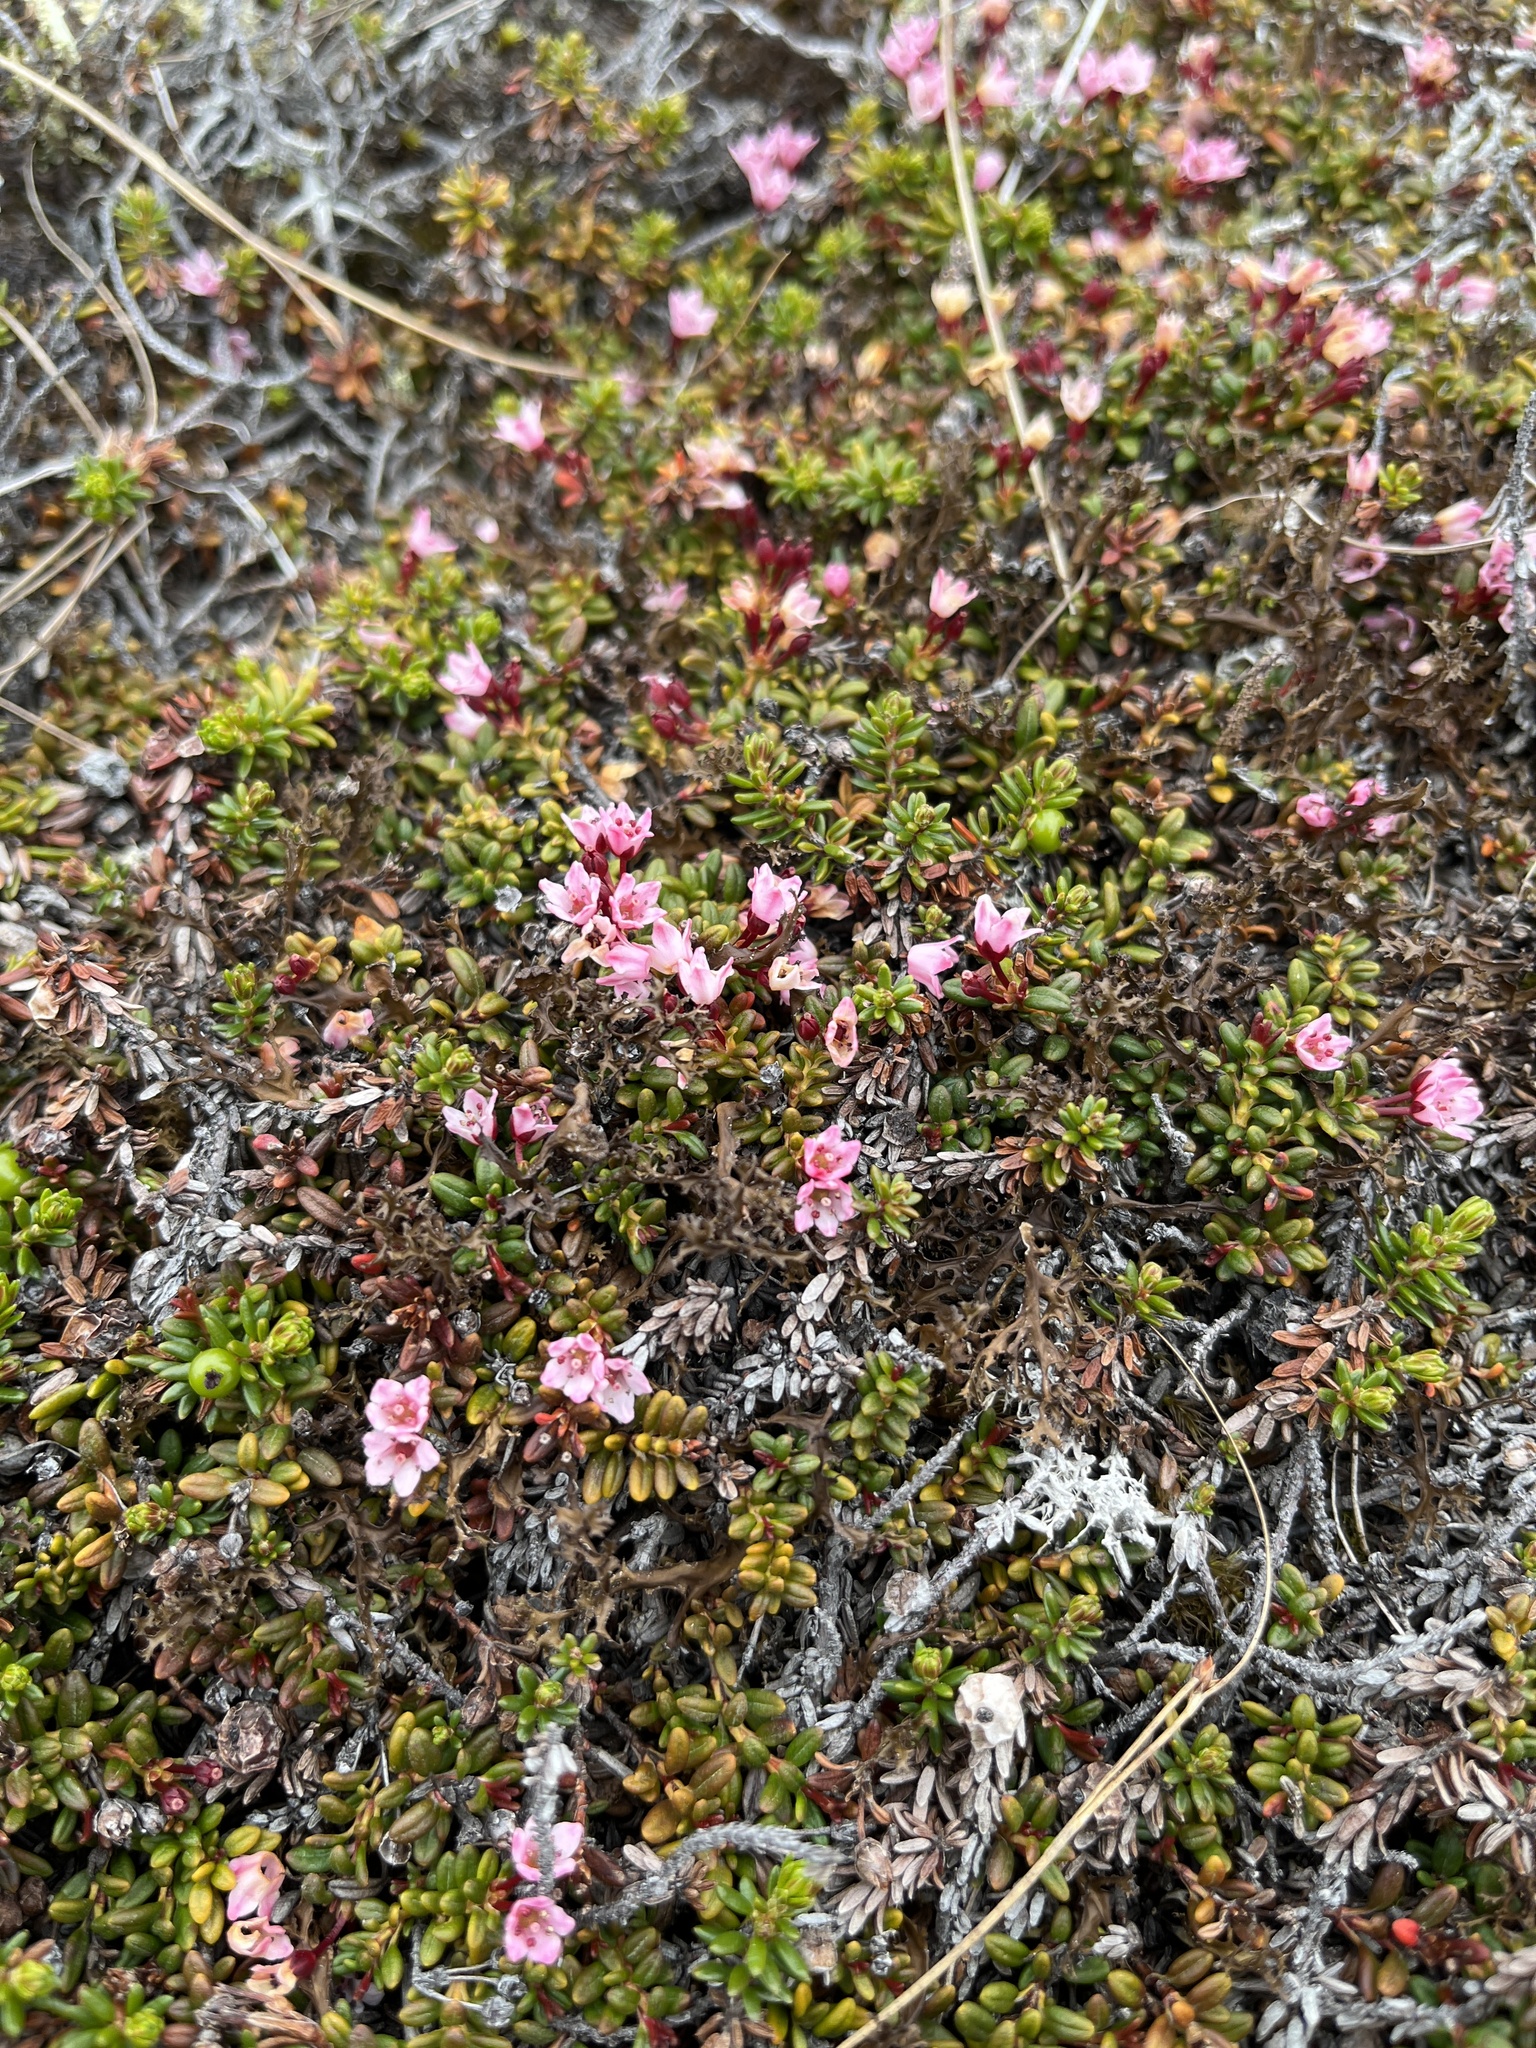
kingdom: Plantae
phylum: Tracheophyta
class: Magnoliopsida
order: Ericales
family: Ericaceae
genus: Kalmia
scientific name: Kalmia procumbens
